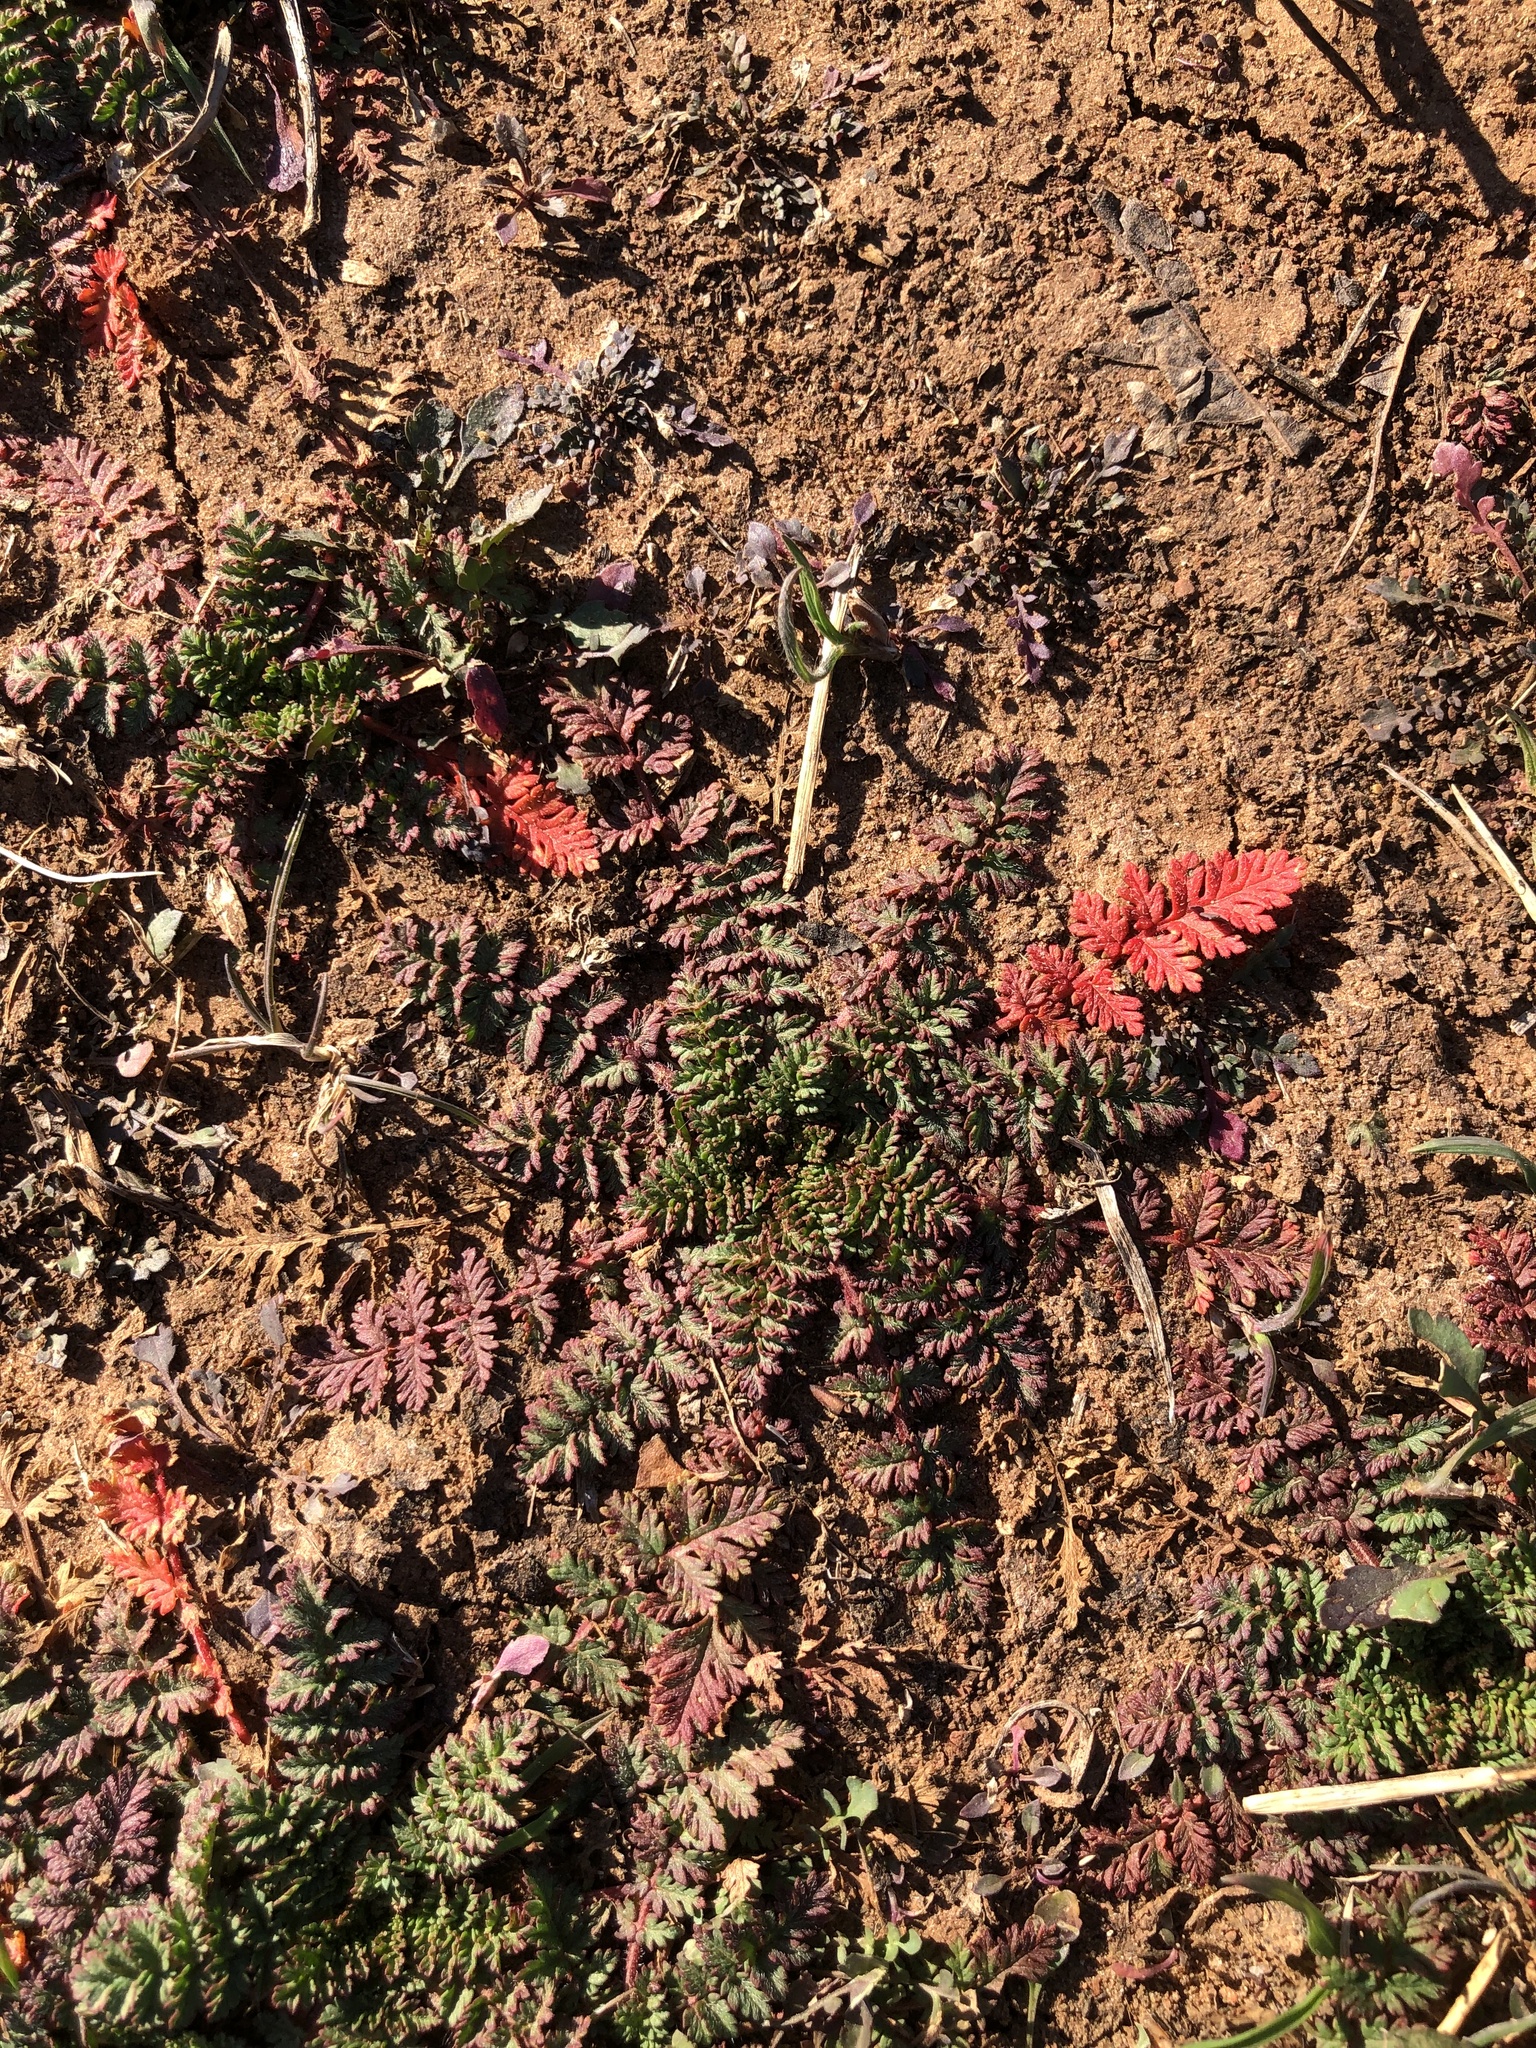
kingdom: Plantae
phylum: Tracheophyta
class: Magnoliopsida
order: Geraniales
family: Geraniaceae
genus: Erodium
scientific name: Erodium cicutarium
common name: Common stork's-bill
